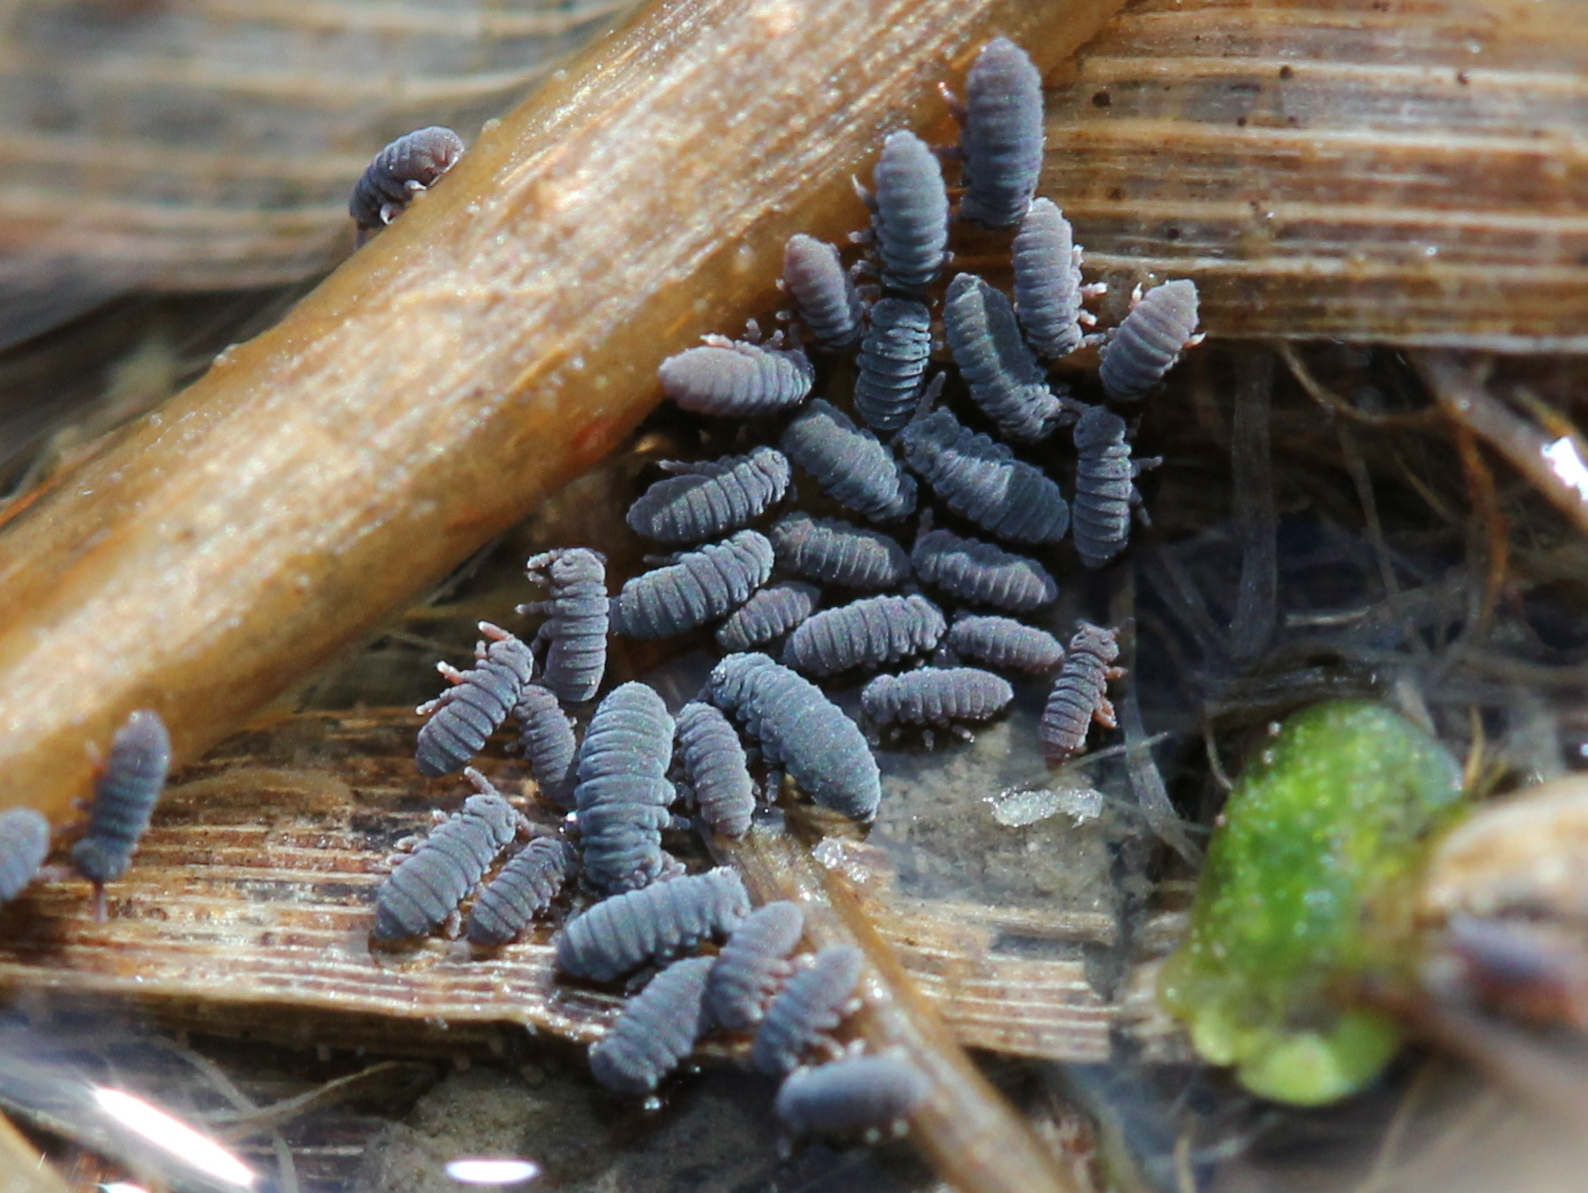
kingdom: Animalia
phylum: Arthropoda
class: Collembola
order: Poduromorpha
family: Poduridae
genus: Podura
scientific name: Podura aquatica
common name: Water springtail
